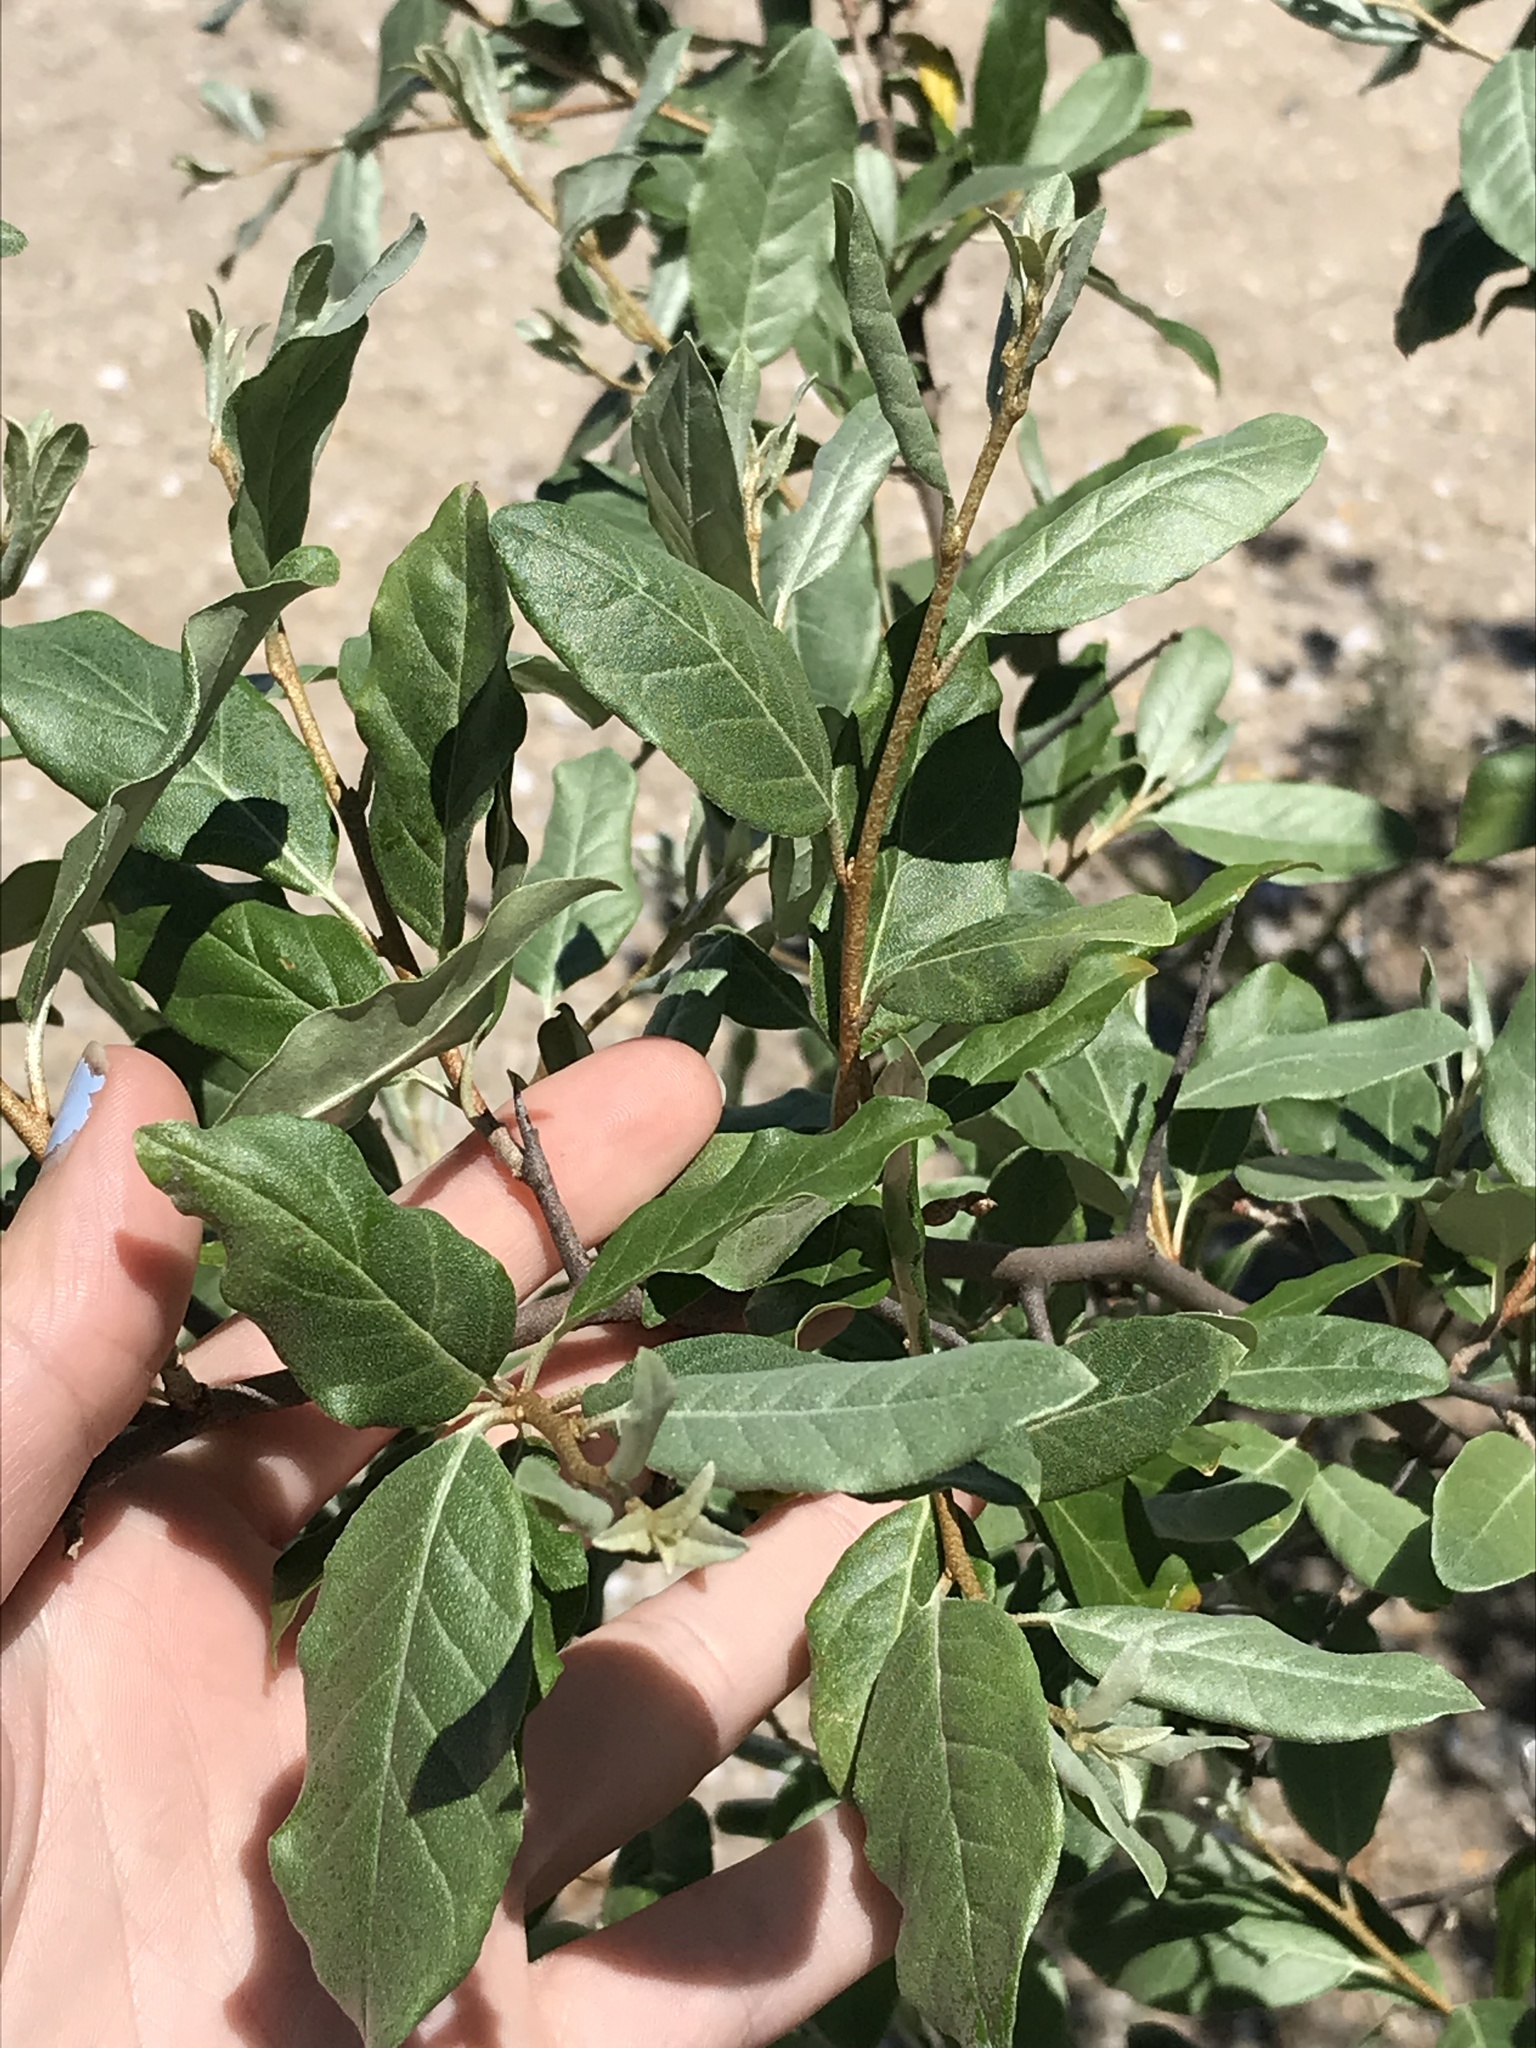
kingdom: Plantae
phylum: Tracheophyta
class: Magnoliopsida
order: Rosales
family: Elaeagnaceae
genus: Elaeagnus
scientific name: Elaeagnus umbellata
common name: Autumn olive
